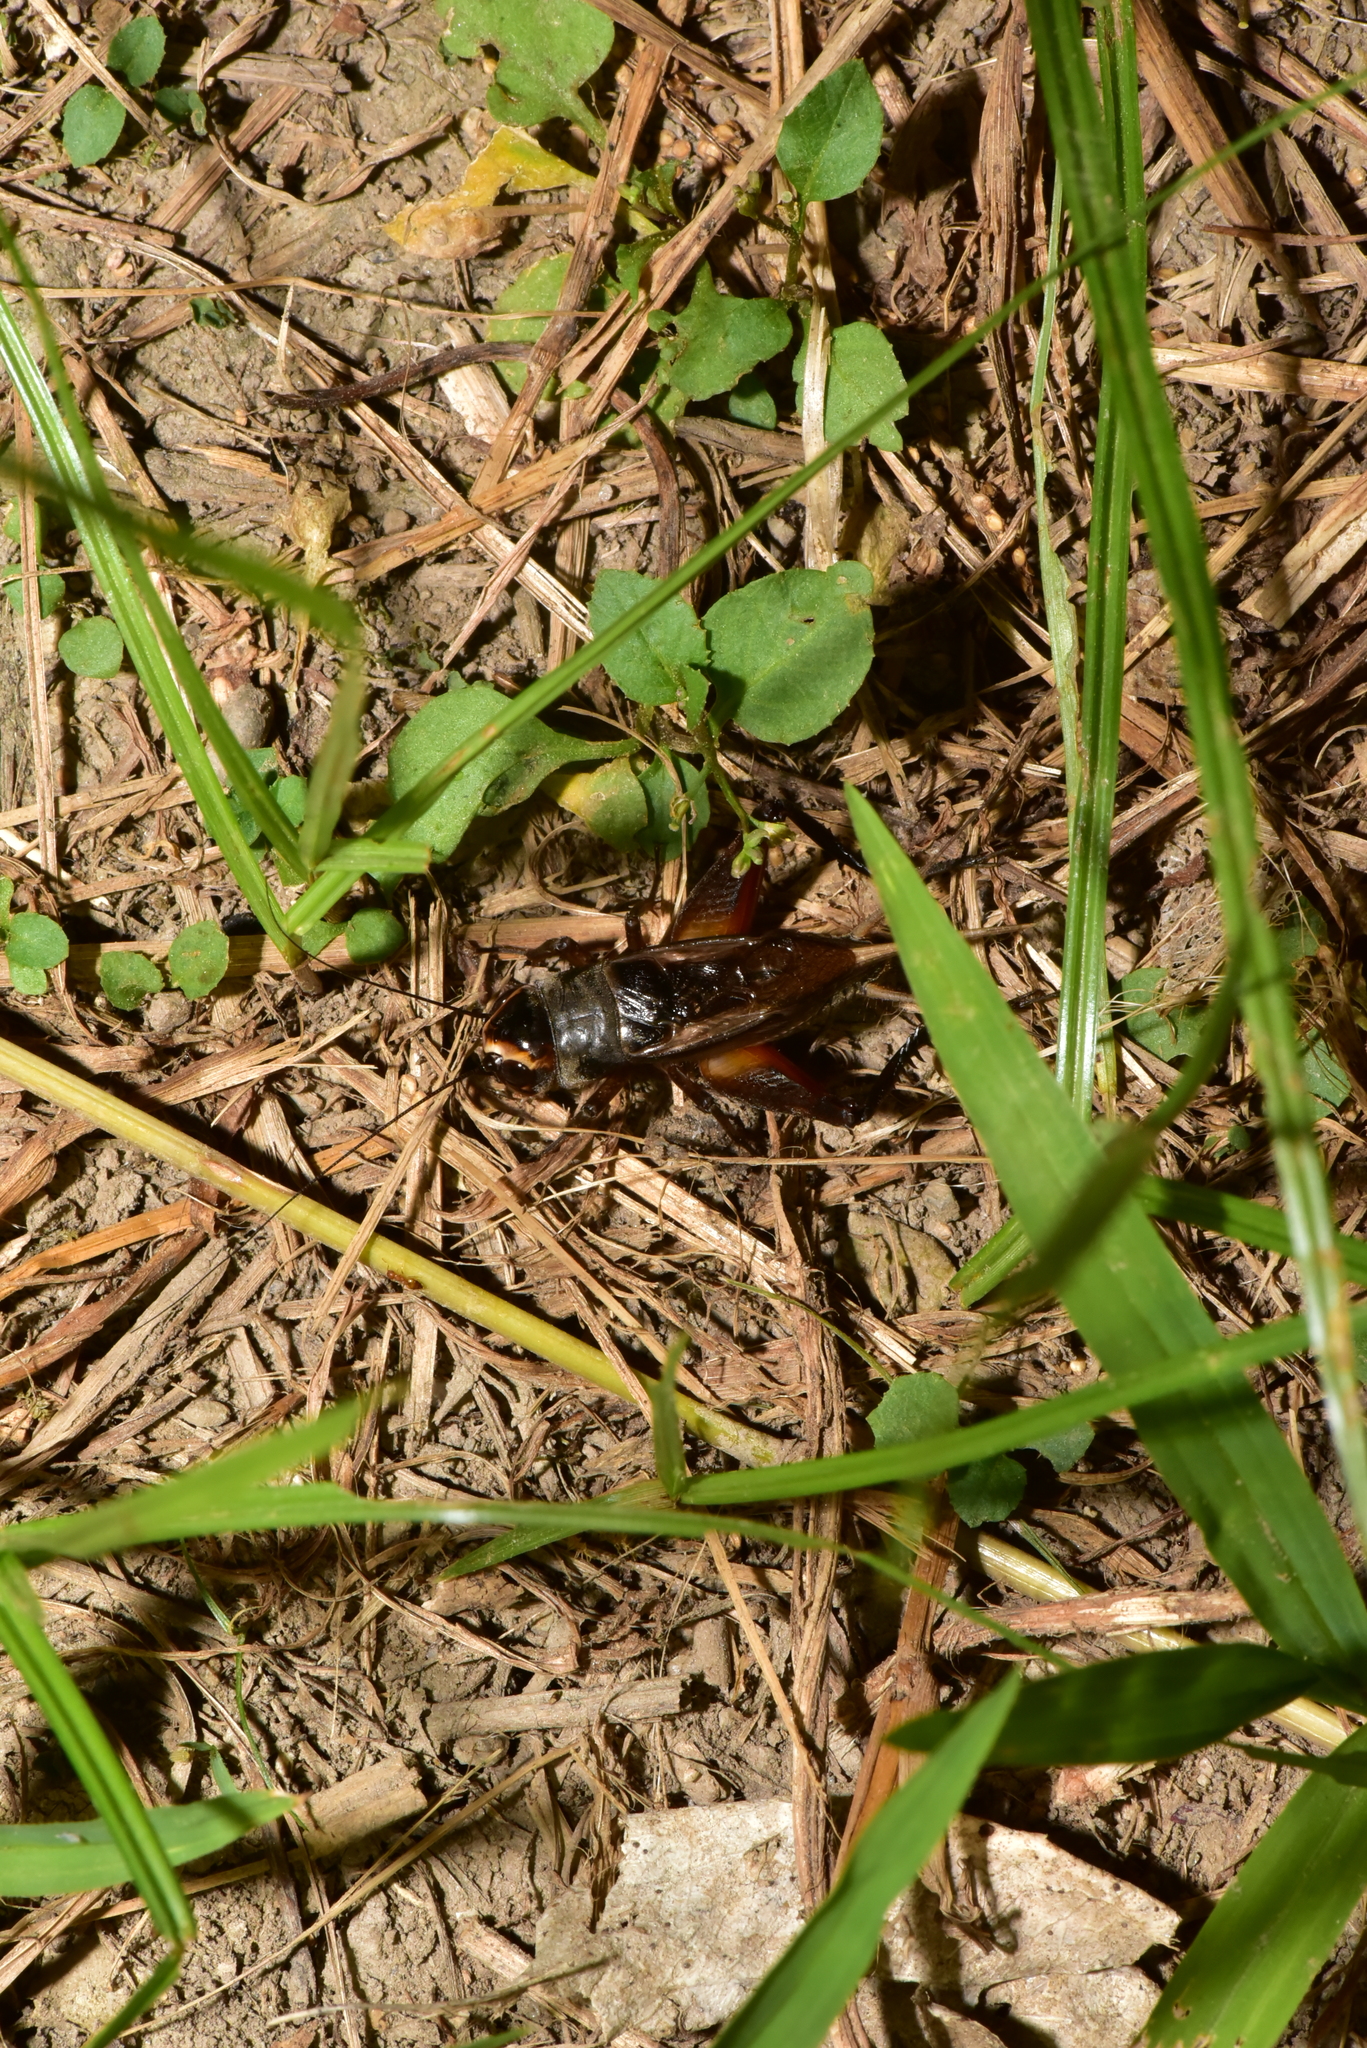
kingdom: Animalia
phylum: Arthropoda
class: Insecta
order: Orthoptera
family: Gryllidae
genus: Teleogryllus
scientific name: Teleogryllus occipitalis
